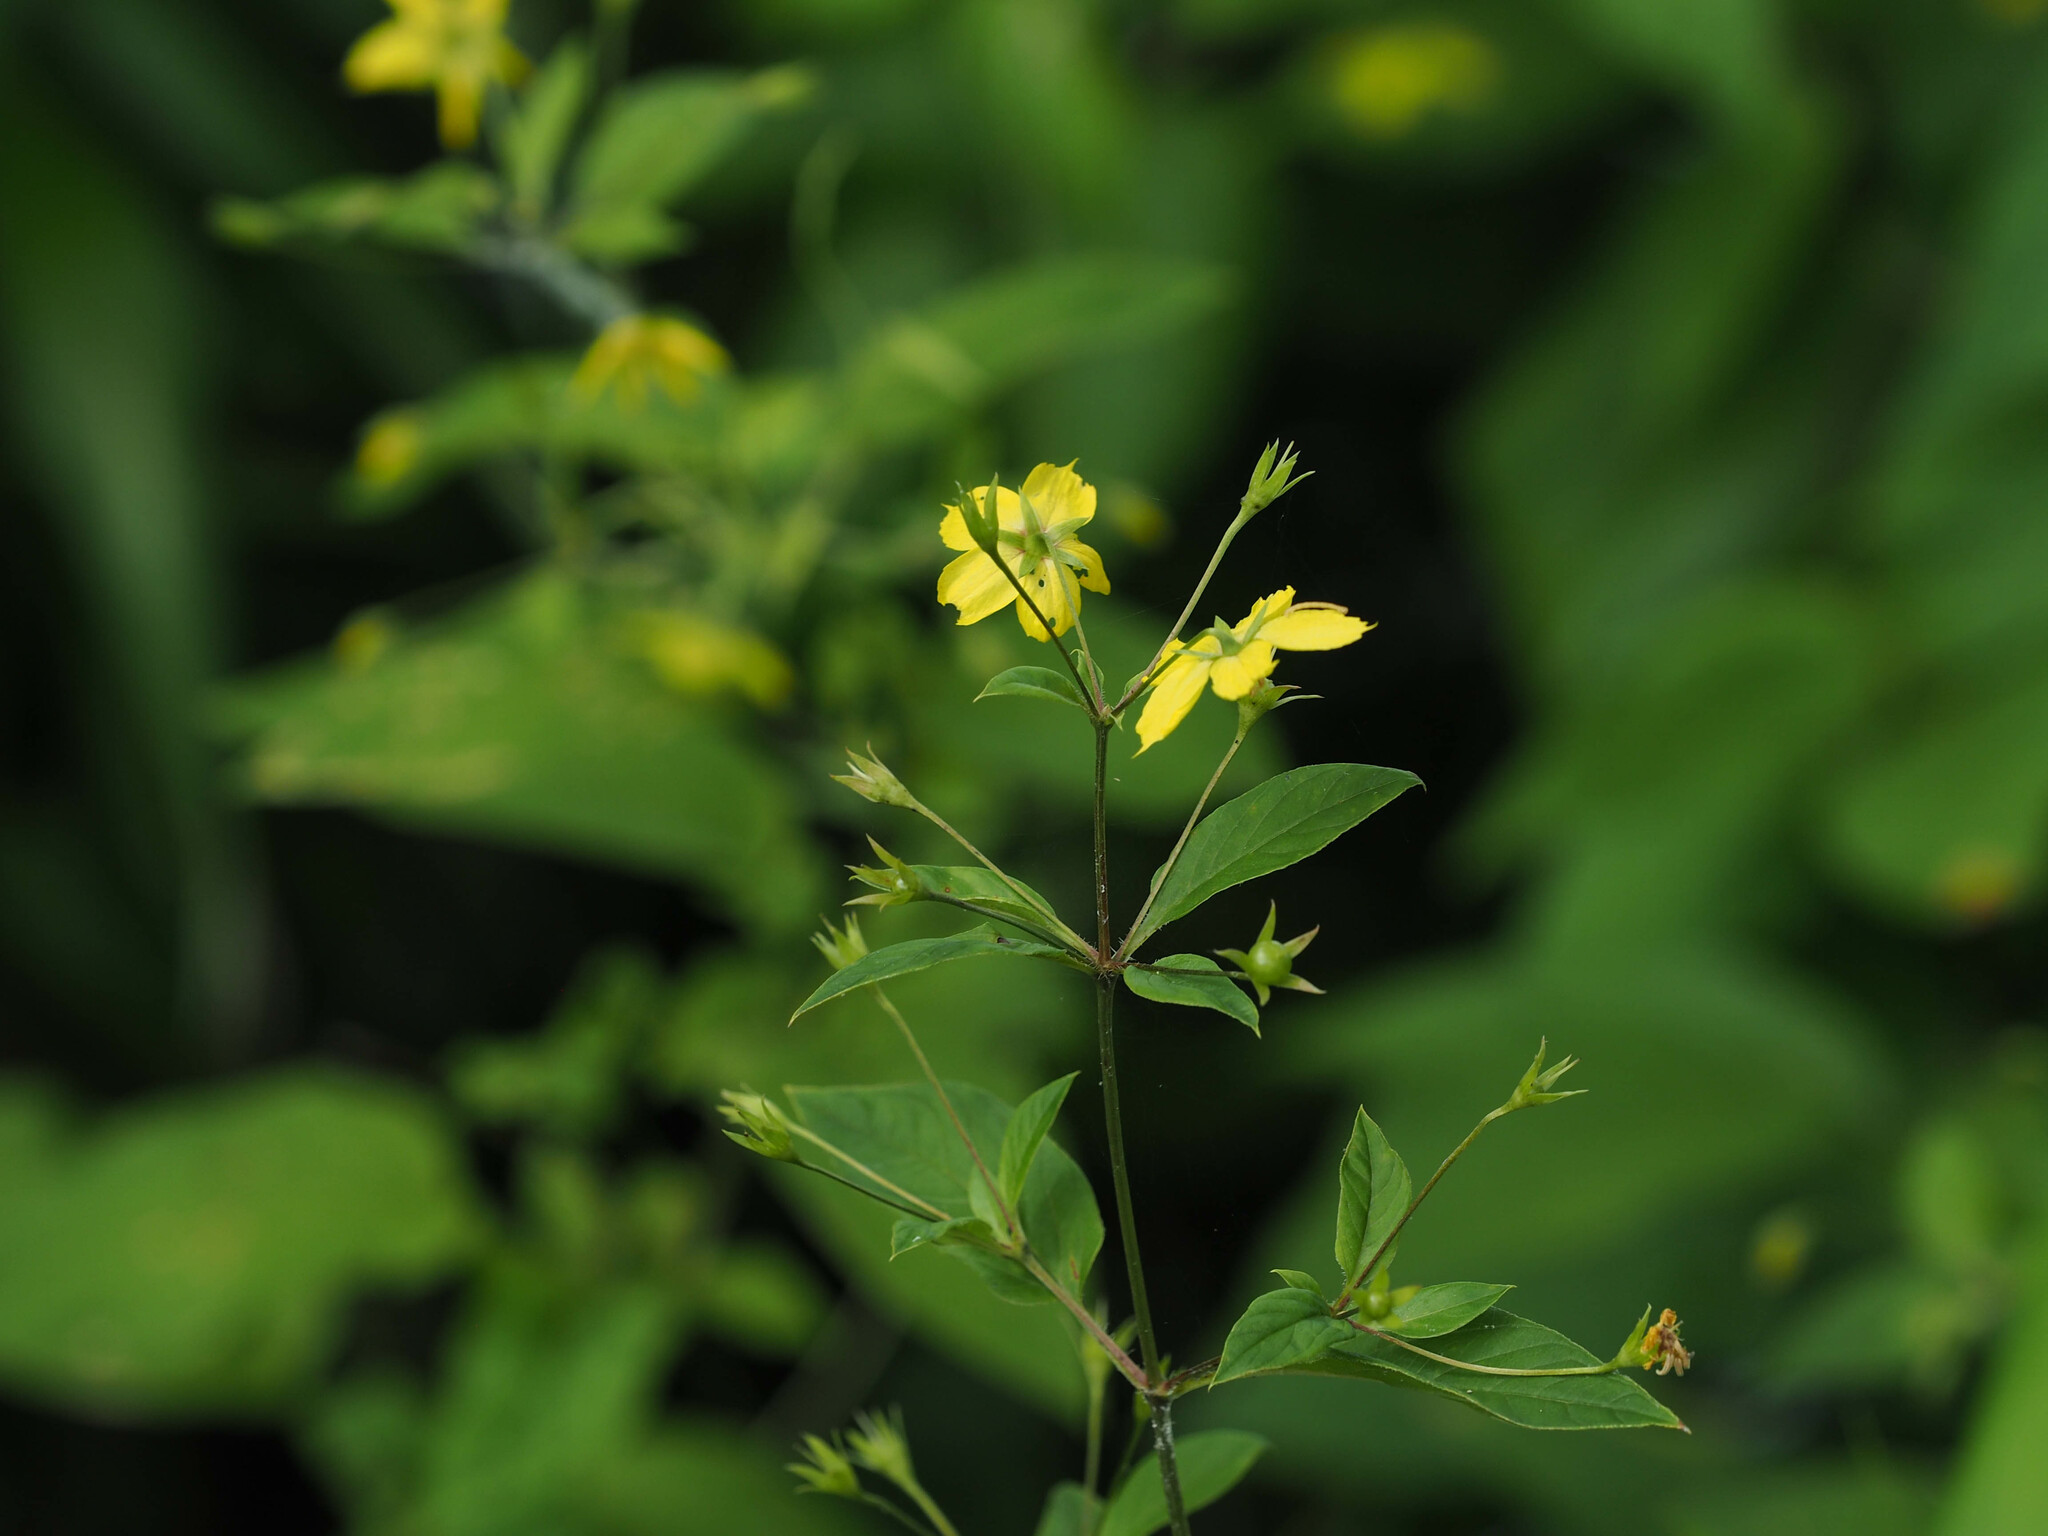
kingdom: Plantae
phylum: Tracheophyta
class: Magnoliopsida
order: Ericales
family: Primulaceae
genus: Lysimachia
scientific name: Lysimachia ciliata
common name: Fringed loosestrife
